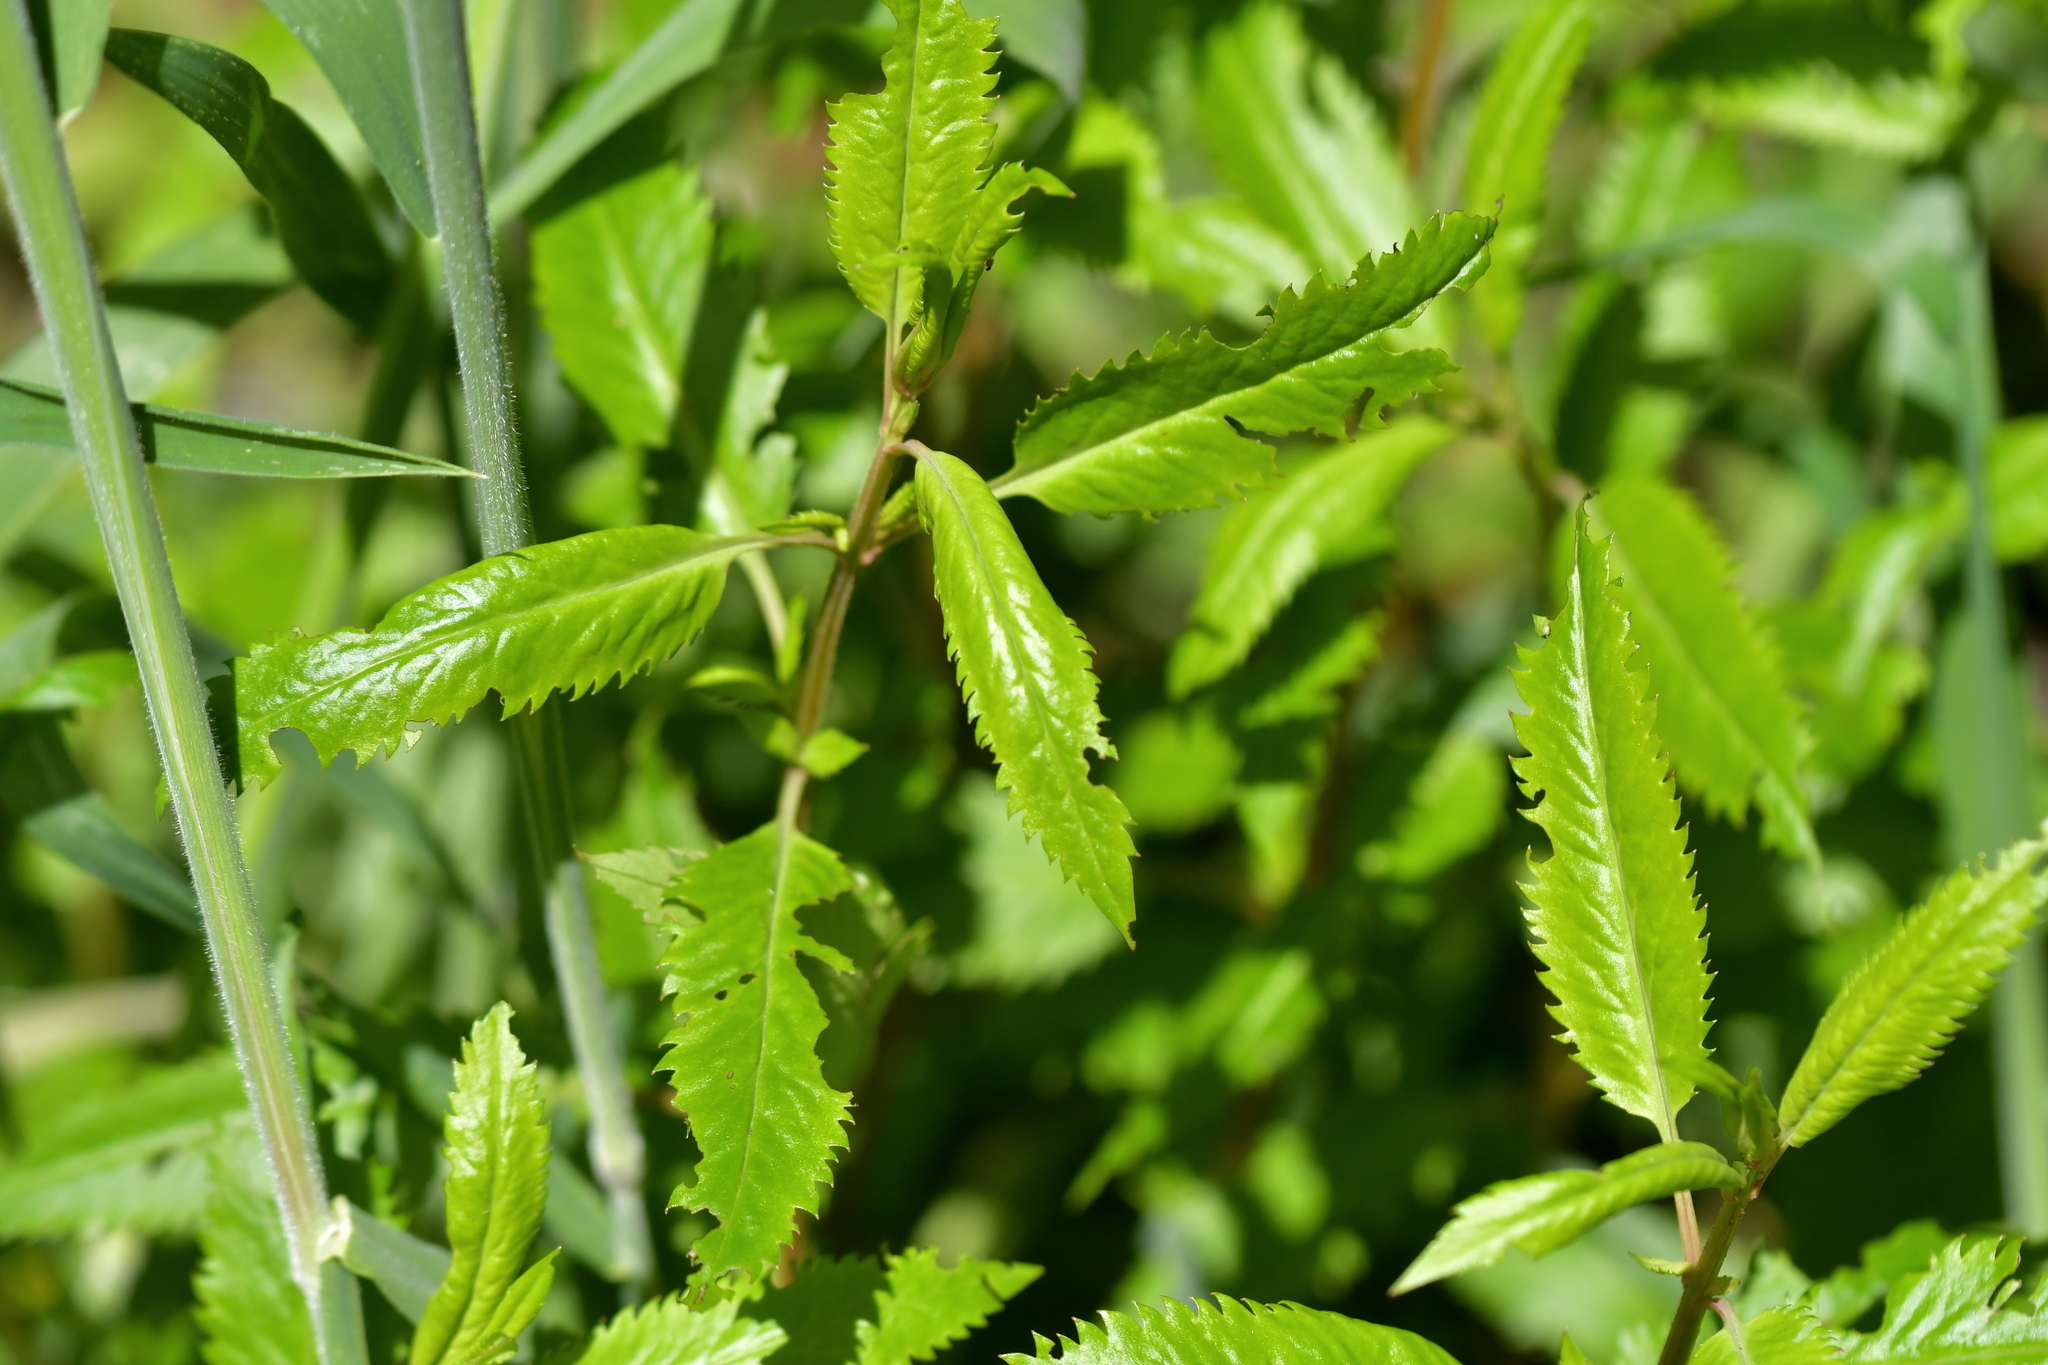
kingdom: Plantae
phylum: Tracheophyta
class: Magnoliopsida
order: Saxifragales
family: Haloragaceae
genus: Haloragis
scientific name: Haloragis erecta
